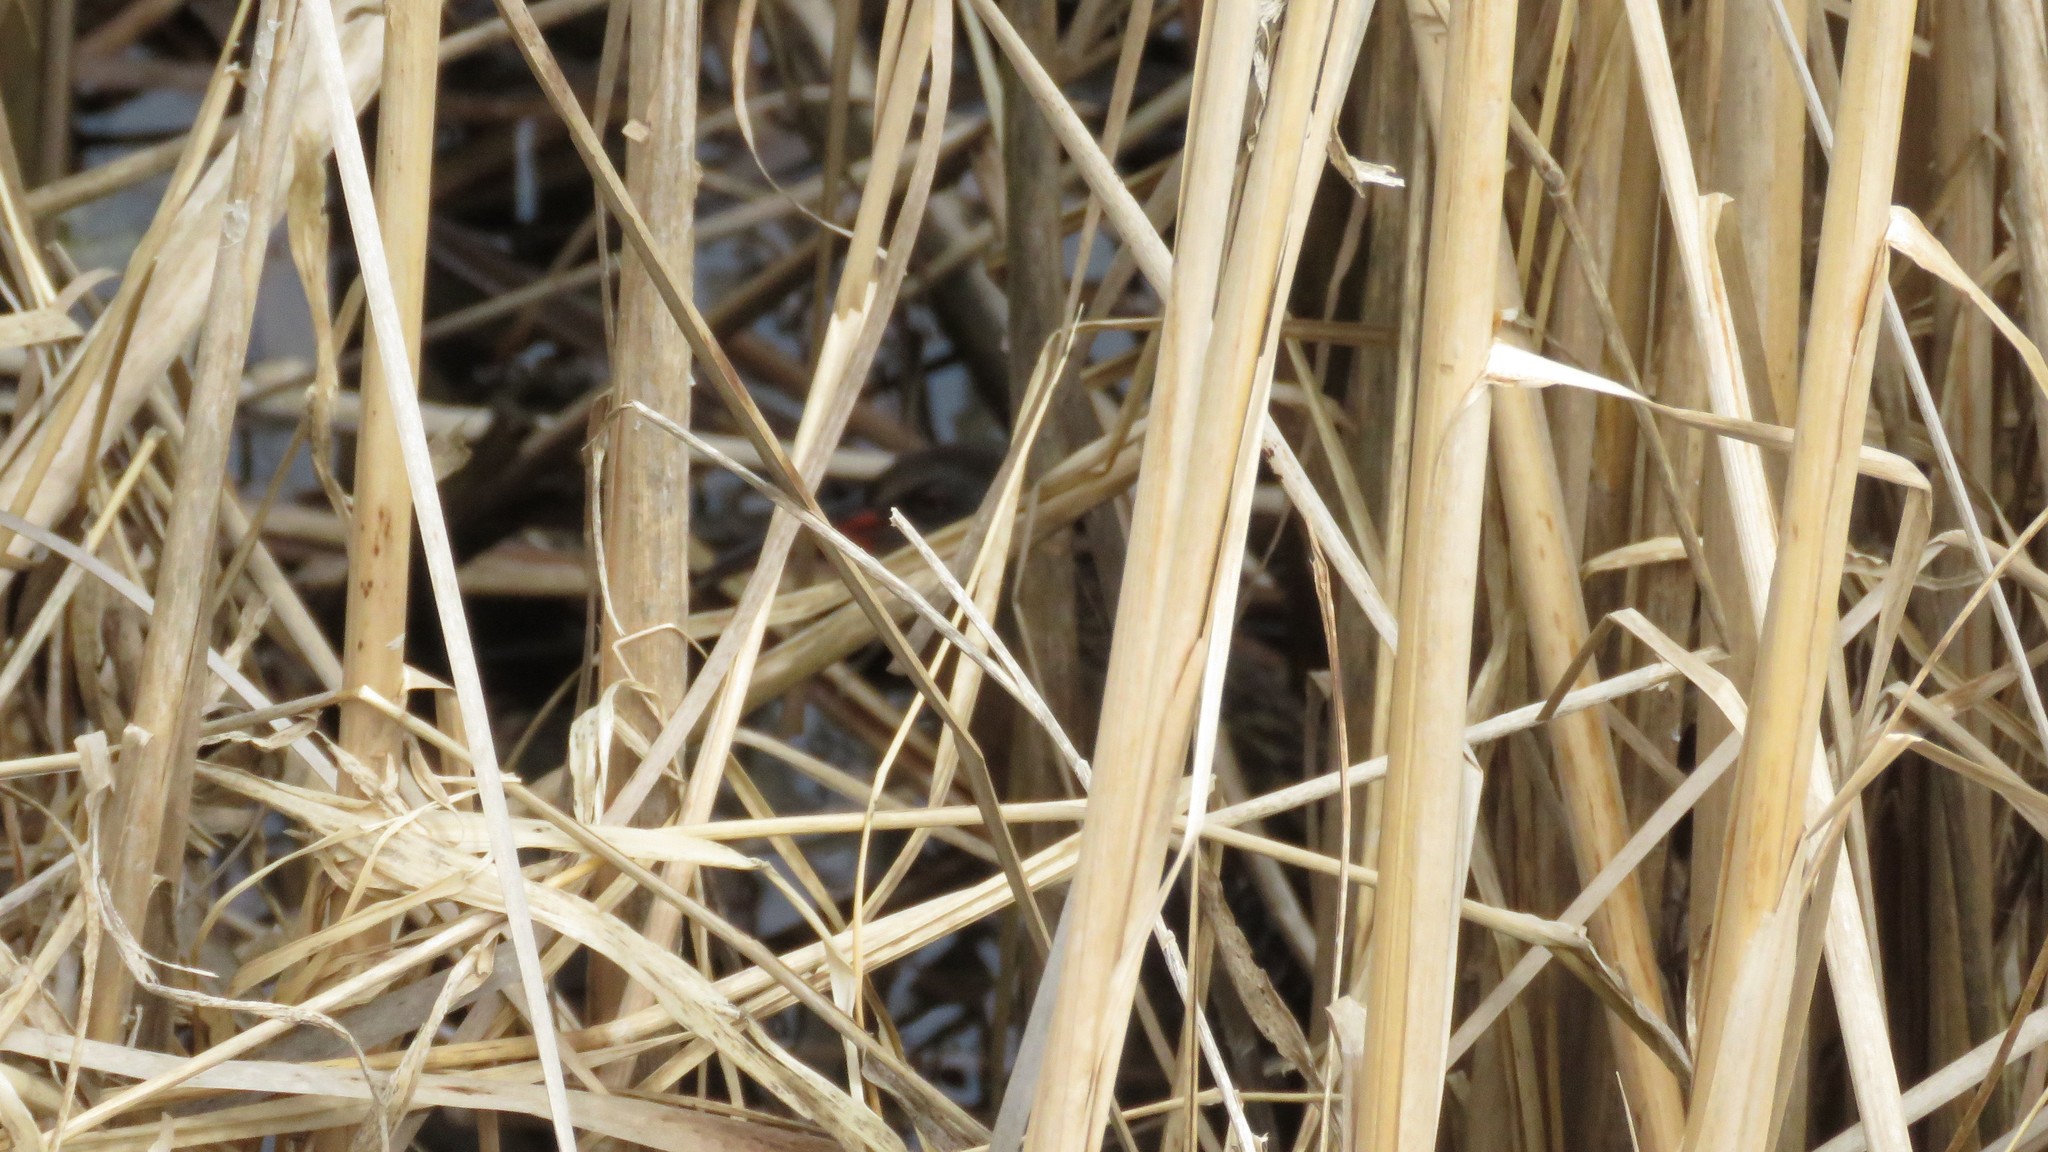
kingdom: Animalia
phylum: Chordata
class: Aves
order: Gruiformes
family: Rallidae
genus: Rallus
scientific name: Rallus limicola
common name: Virginia rail
